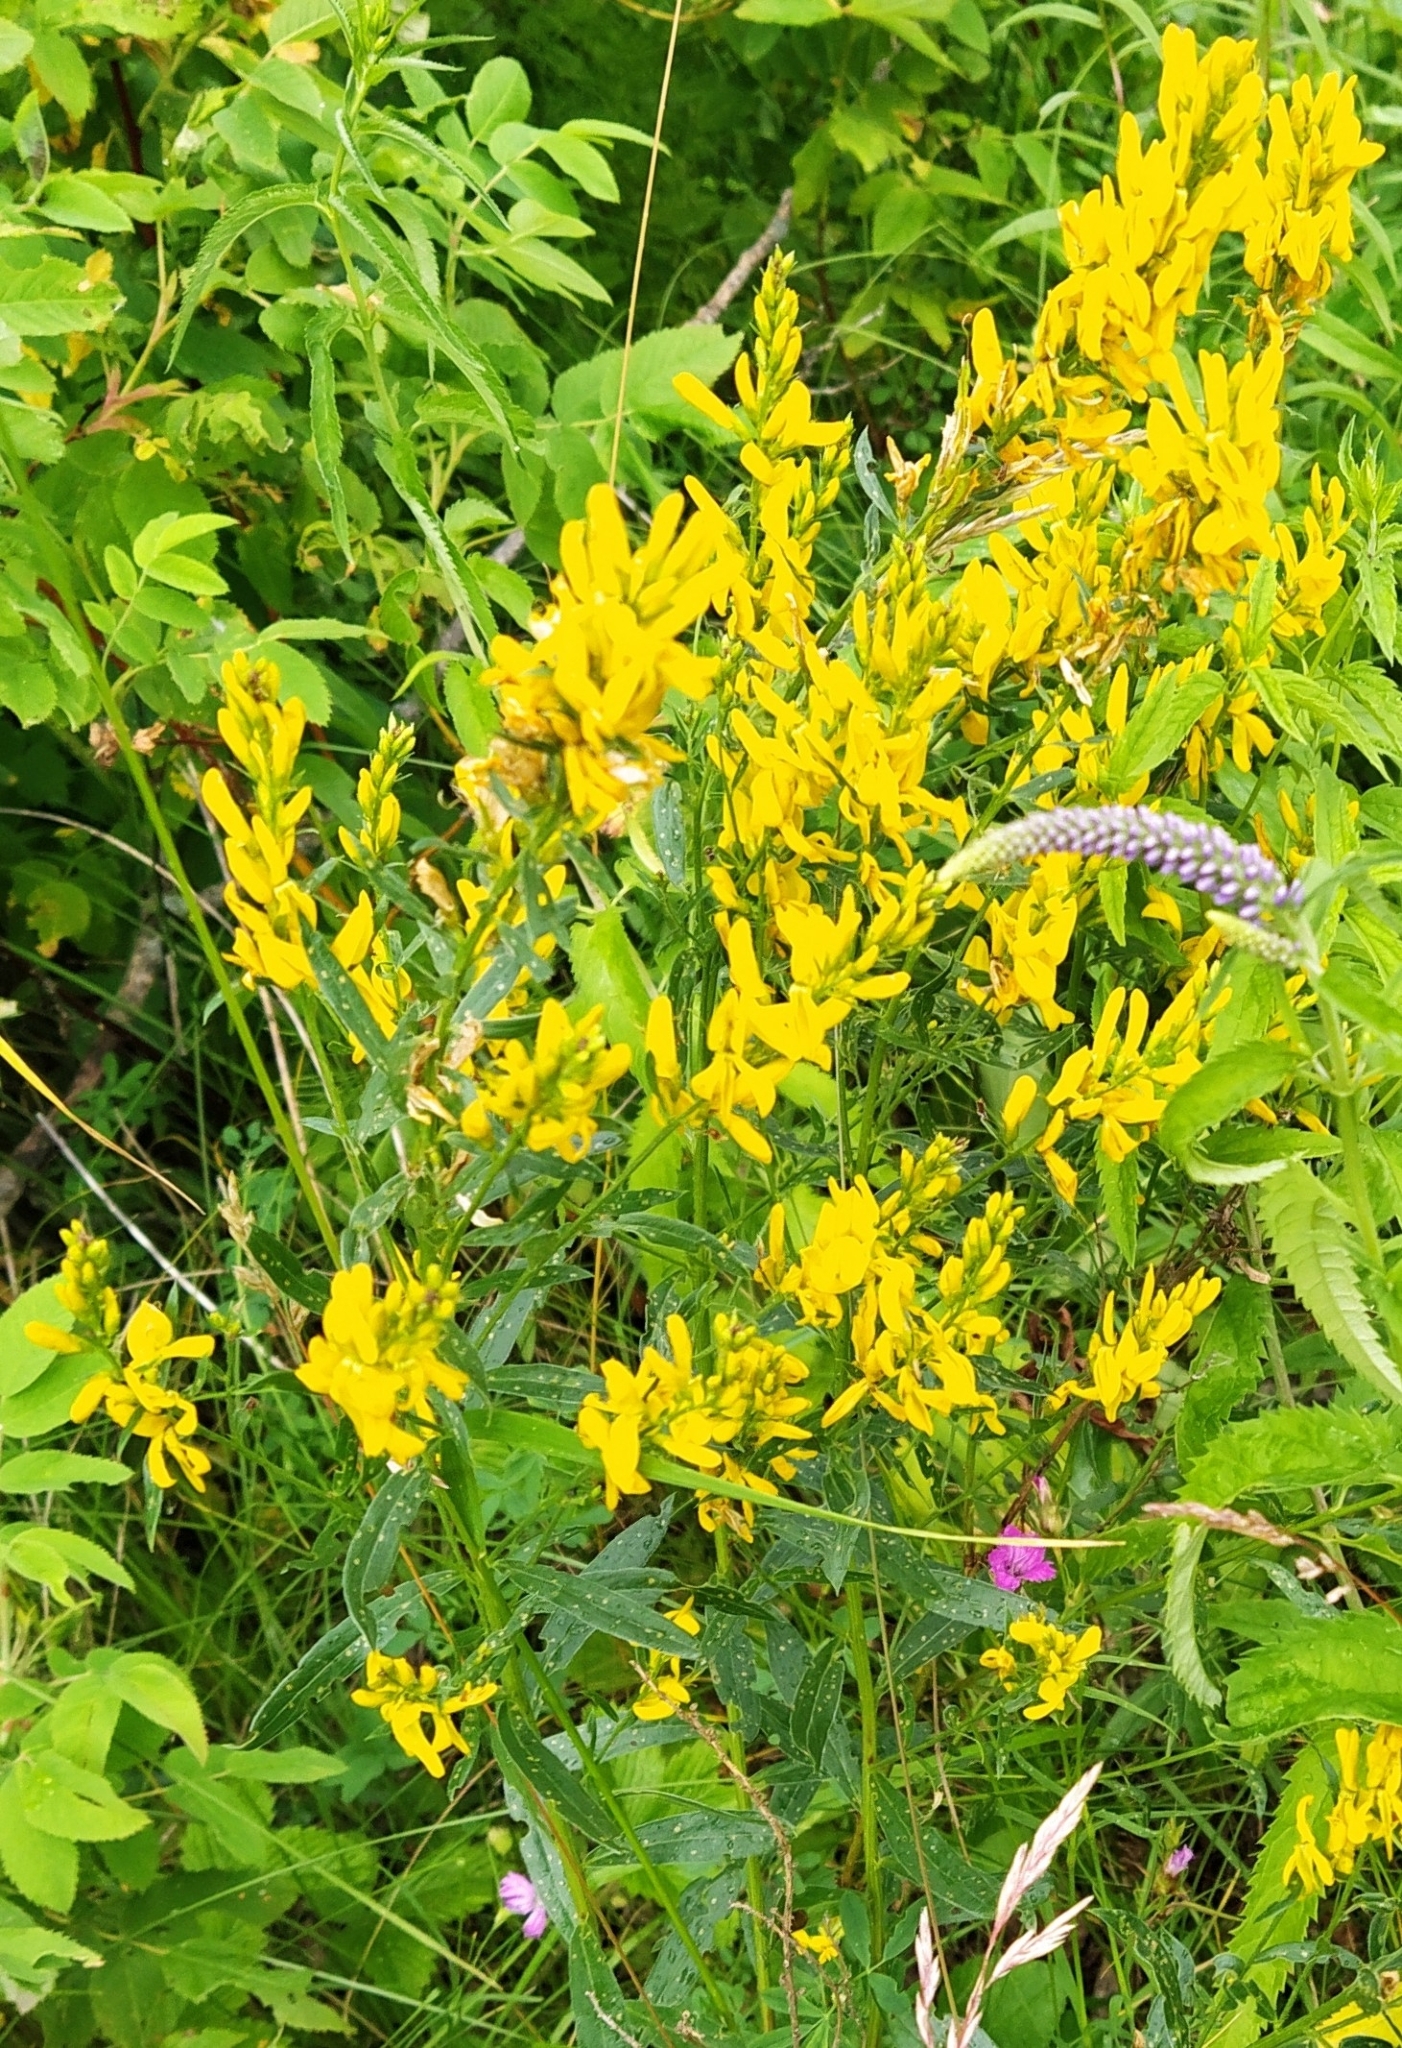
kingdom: Plantae
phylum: Tracheophyta
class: Magnoliopsida
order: Fabales
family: Fabaceae
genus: Genista
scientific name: Genista tinctoria
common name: Dyer's greenweed
